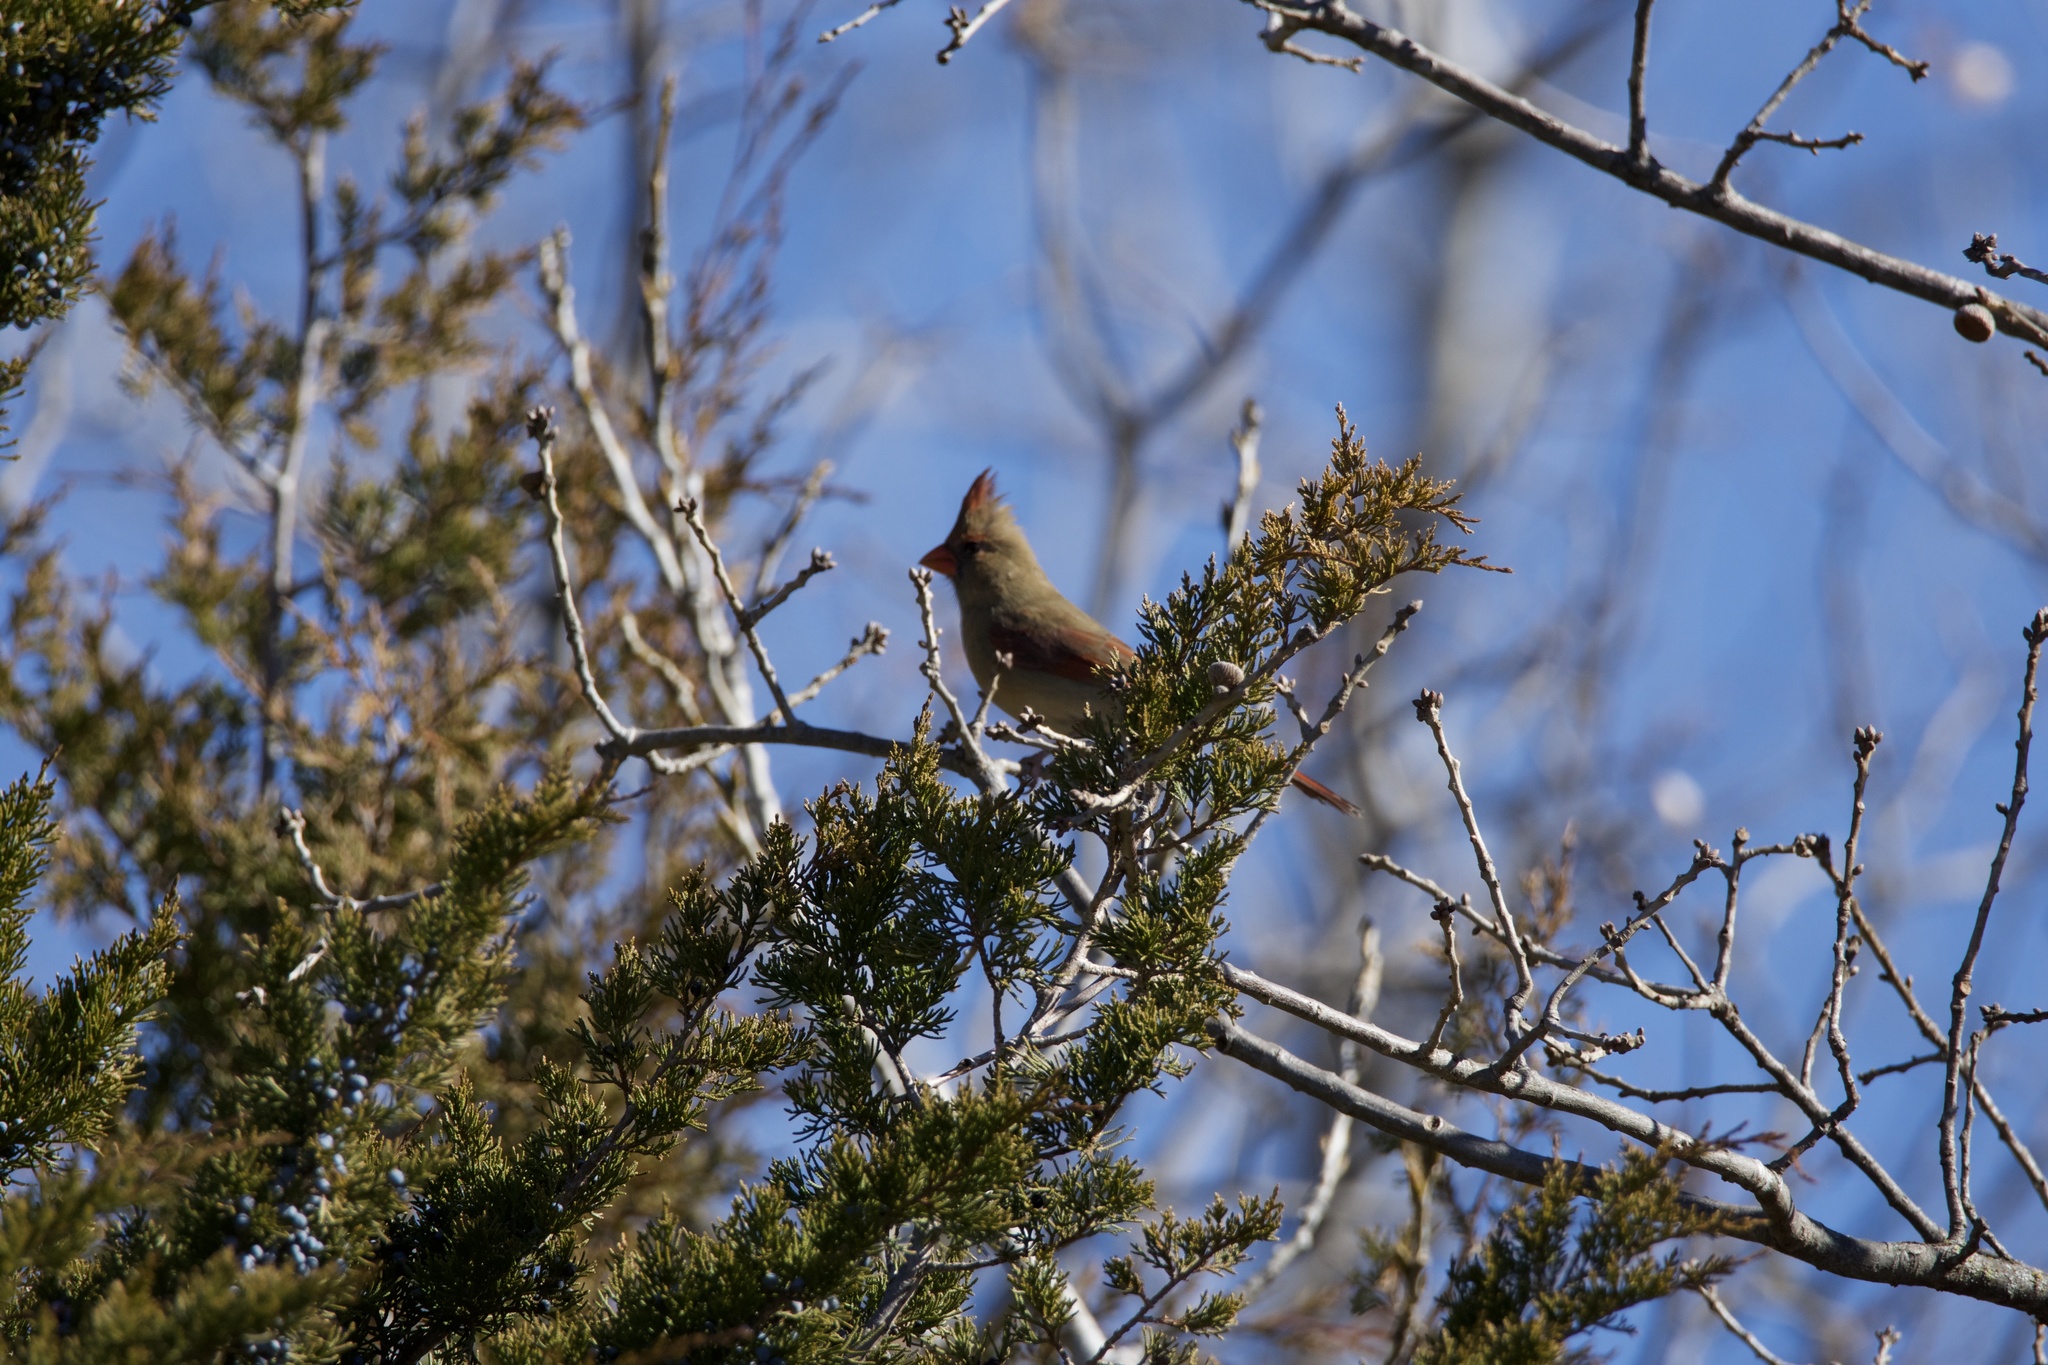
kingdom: Animalia
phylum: Chordata
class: Aves
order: Passeriformes
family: Cardinalidae
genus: Cardinalis
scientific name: Cardinalis cardinalis
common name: Northern cardinal
